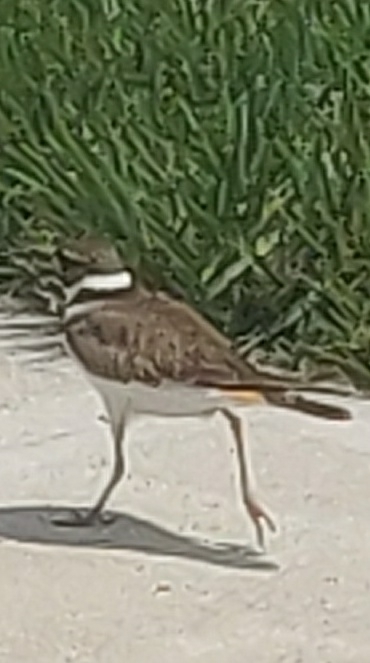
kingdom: Animalia
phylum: Chordata
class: Aves
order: Charadriiformes
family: Charadriidae
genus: Charadrius
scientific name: Charadrius vociferus
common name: Killdeer
